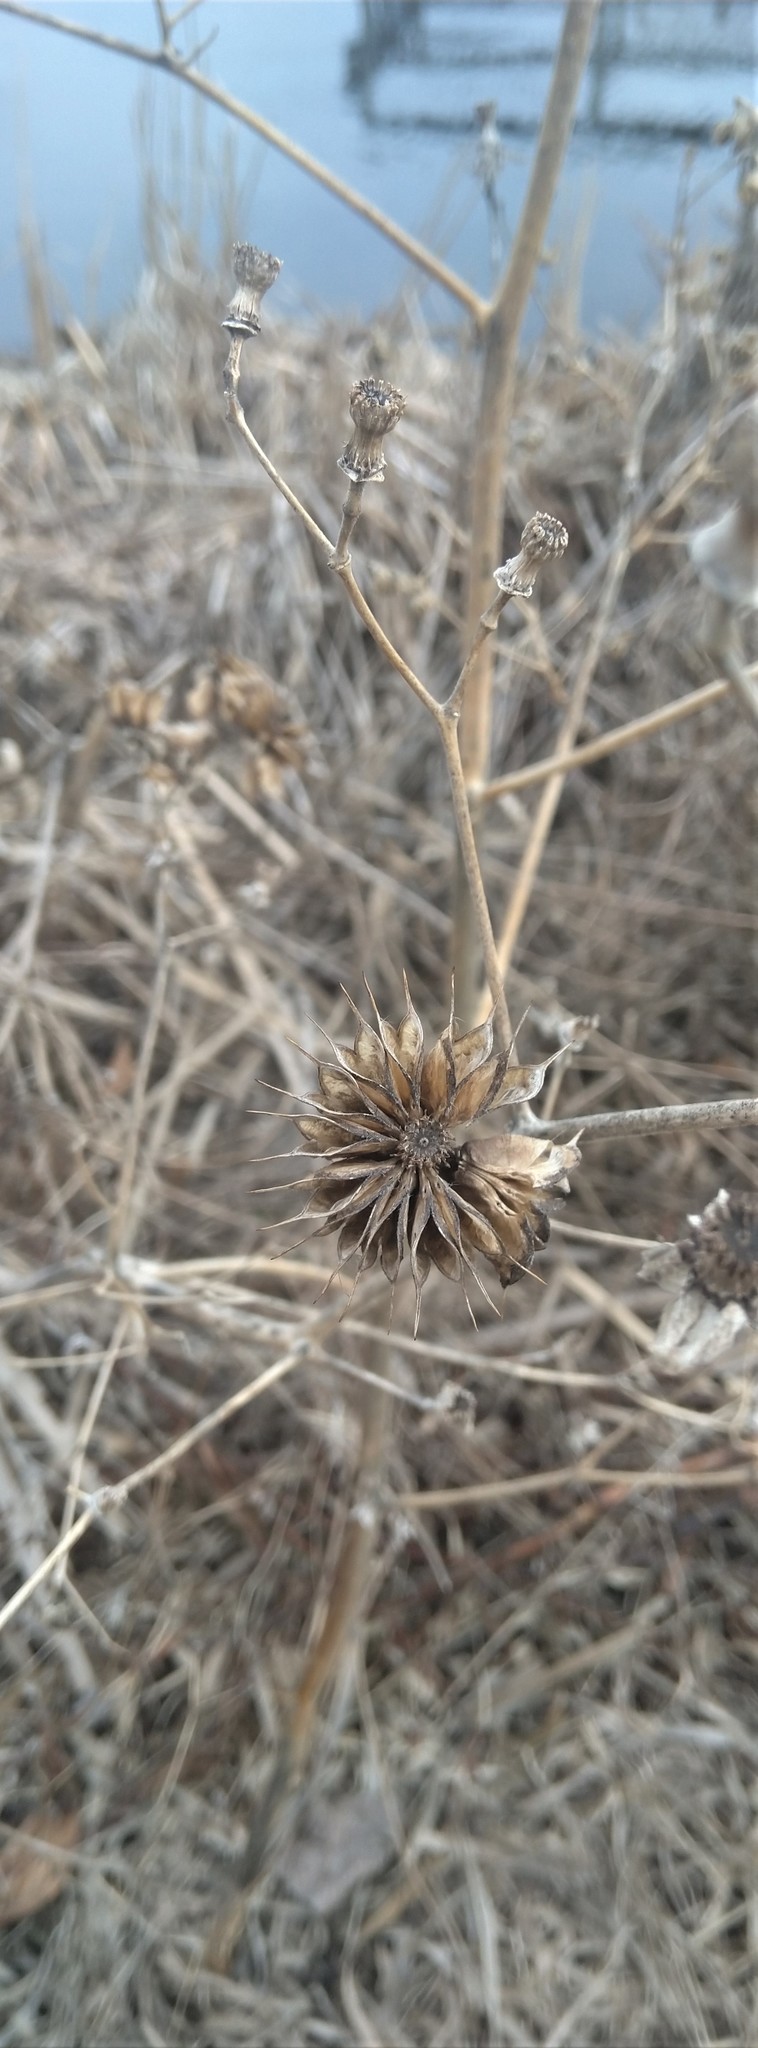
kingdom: Plantae
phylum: Tracheophyta
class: Magnoliopsida
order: Malvales
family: Malvaceae
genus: Abutilon
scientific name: Abutilon theophrasti
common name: Velvetleaf
